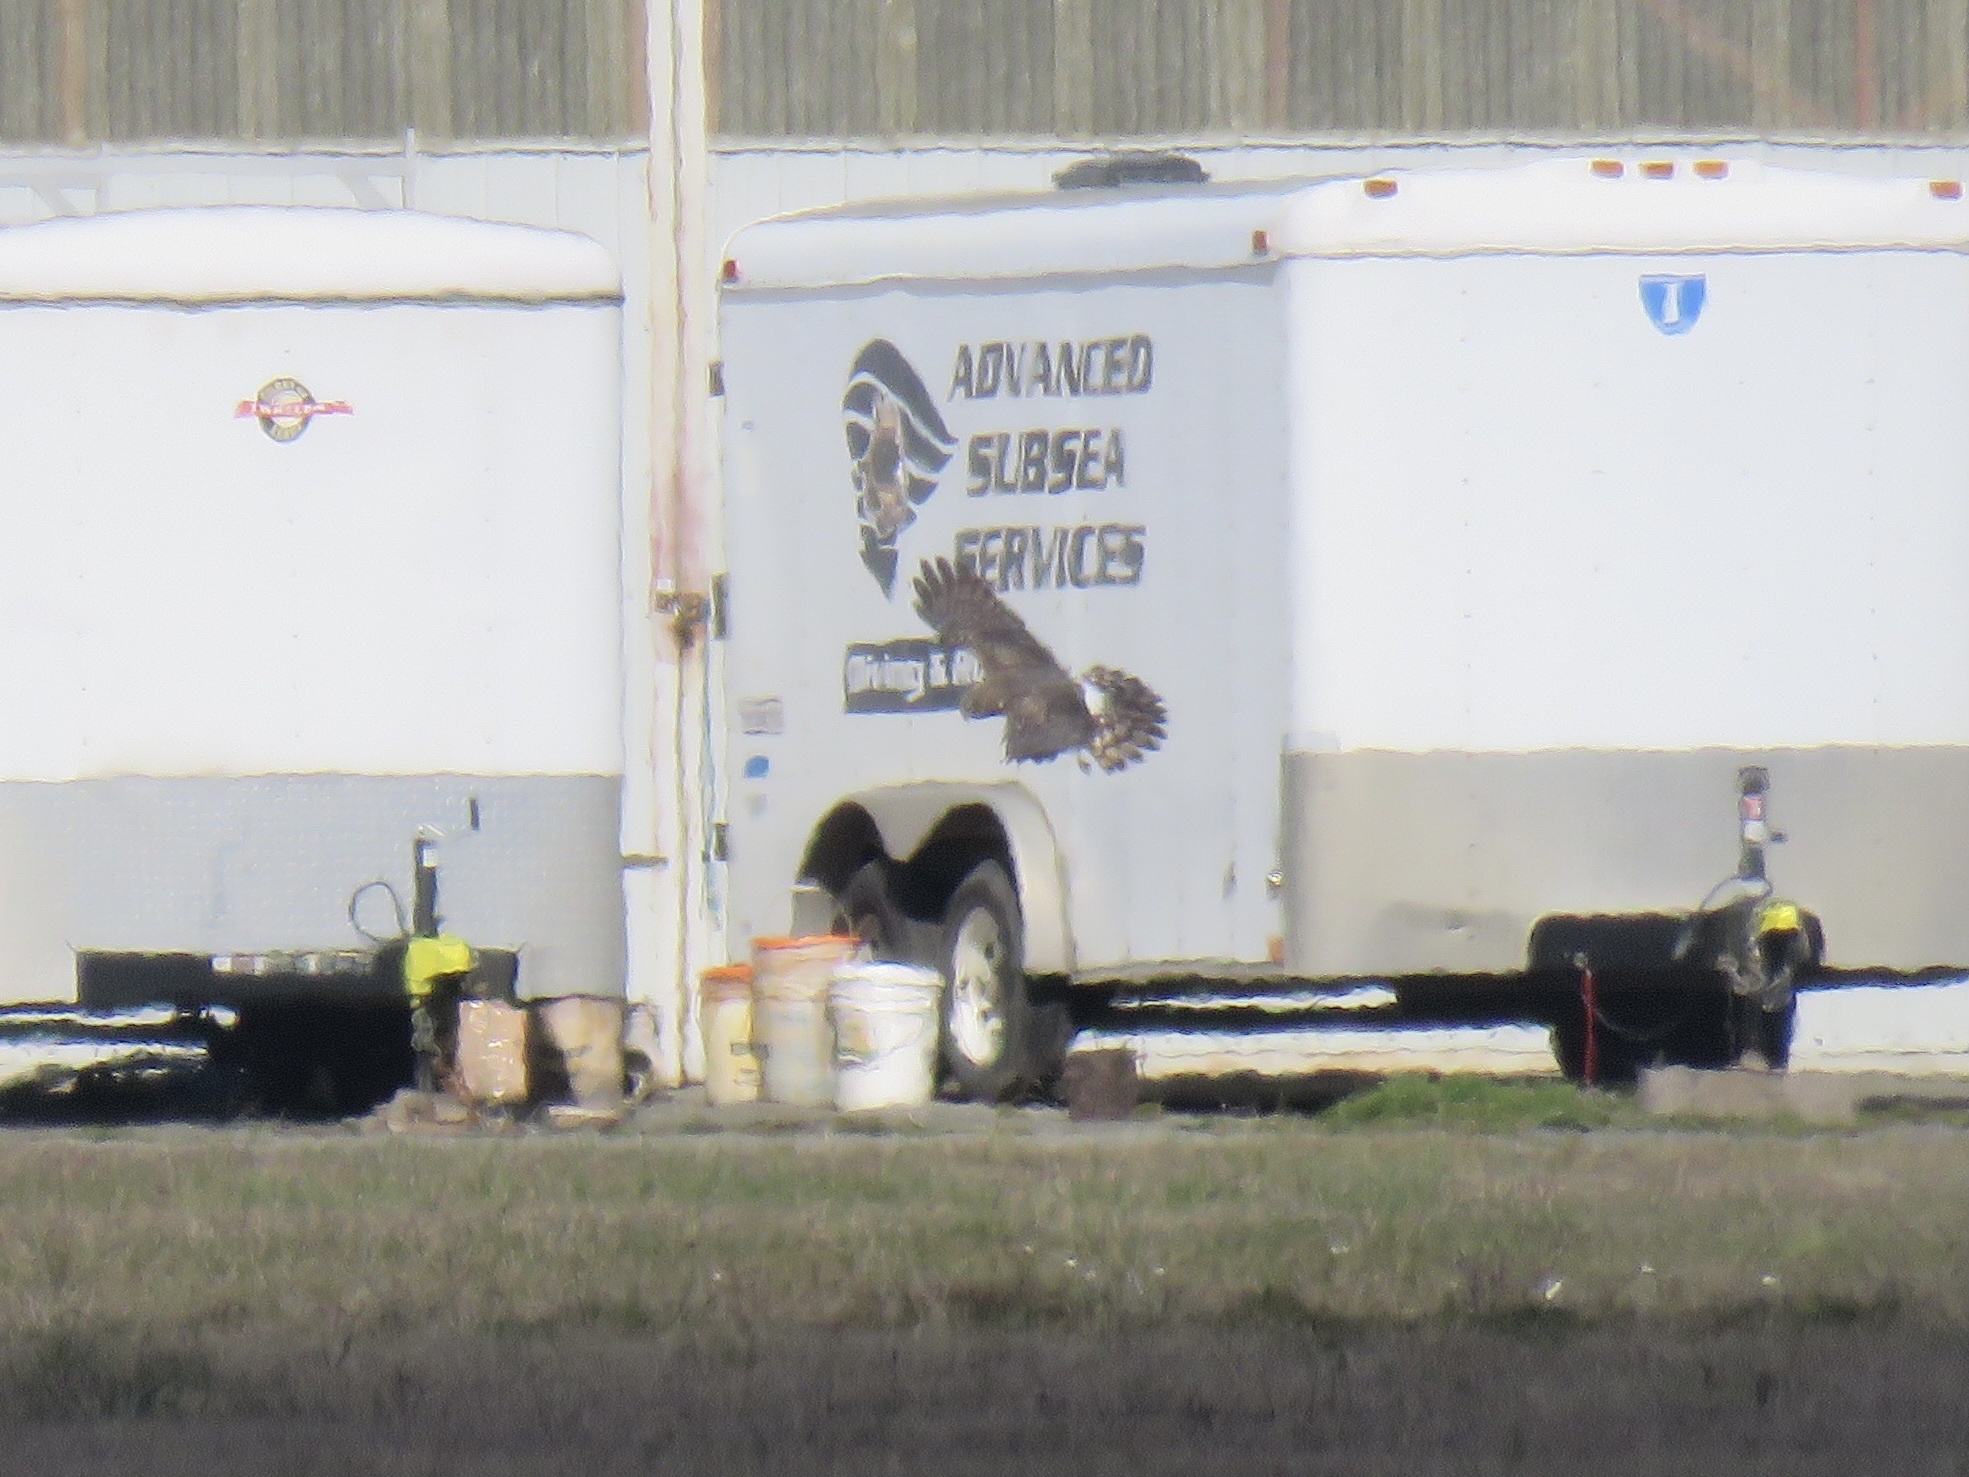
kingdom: Animalia
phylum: Chordata
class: Aves
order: Accipitriformes
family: Accipitridae
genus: Circus
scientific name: Circus cyaneus
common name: Hen harrier
